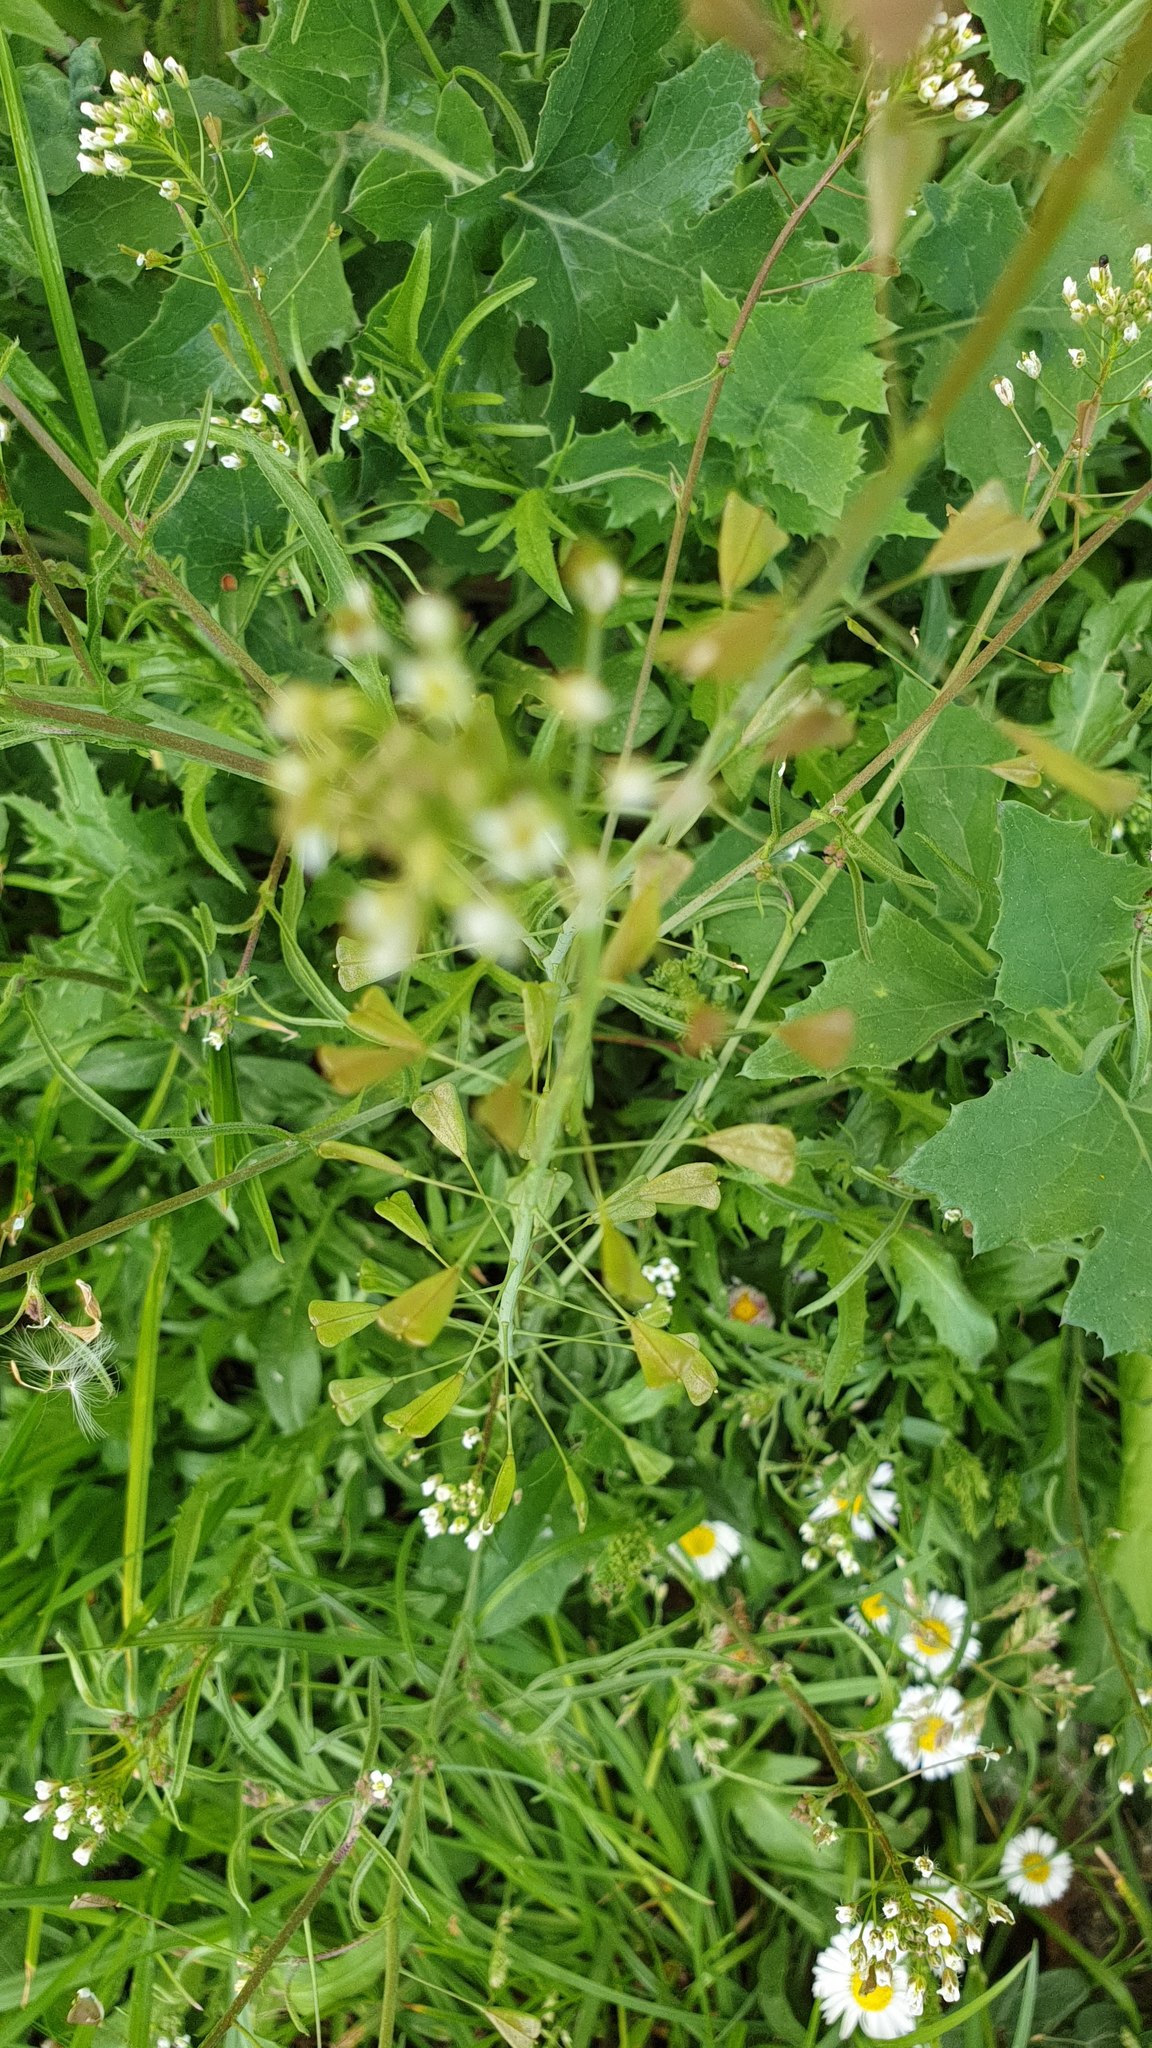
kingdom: Plantae
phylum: Tracheophyta
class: Magnoliopsida
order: Brassicales
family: Brassicaceae
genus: Capsella
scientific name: Capsella bursa-pastoris
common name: Shepherd's purse
